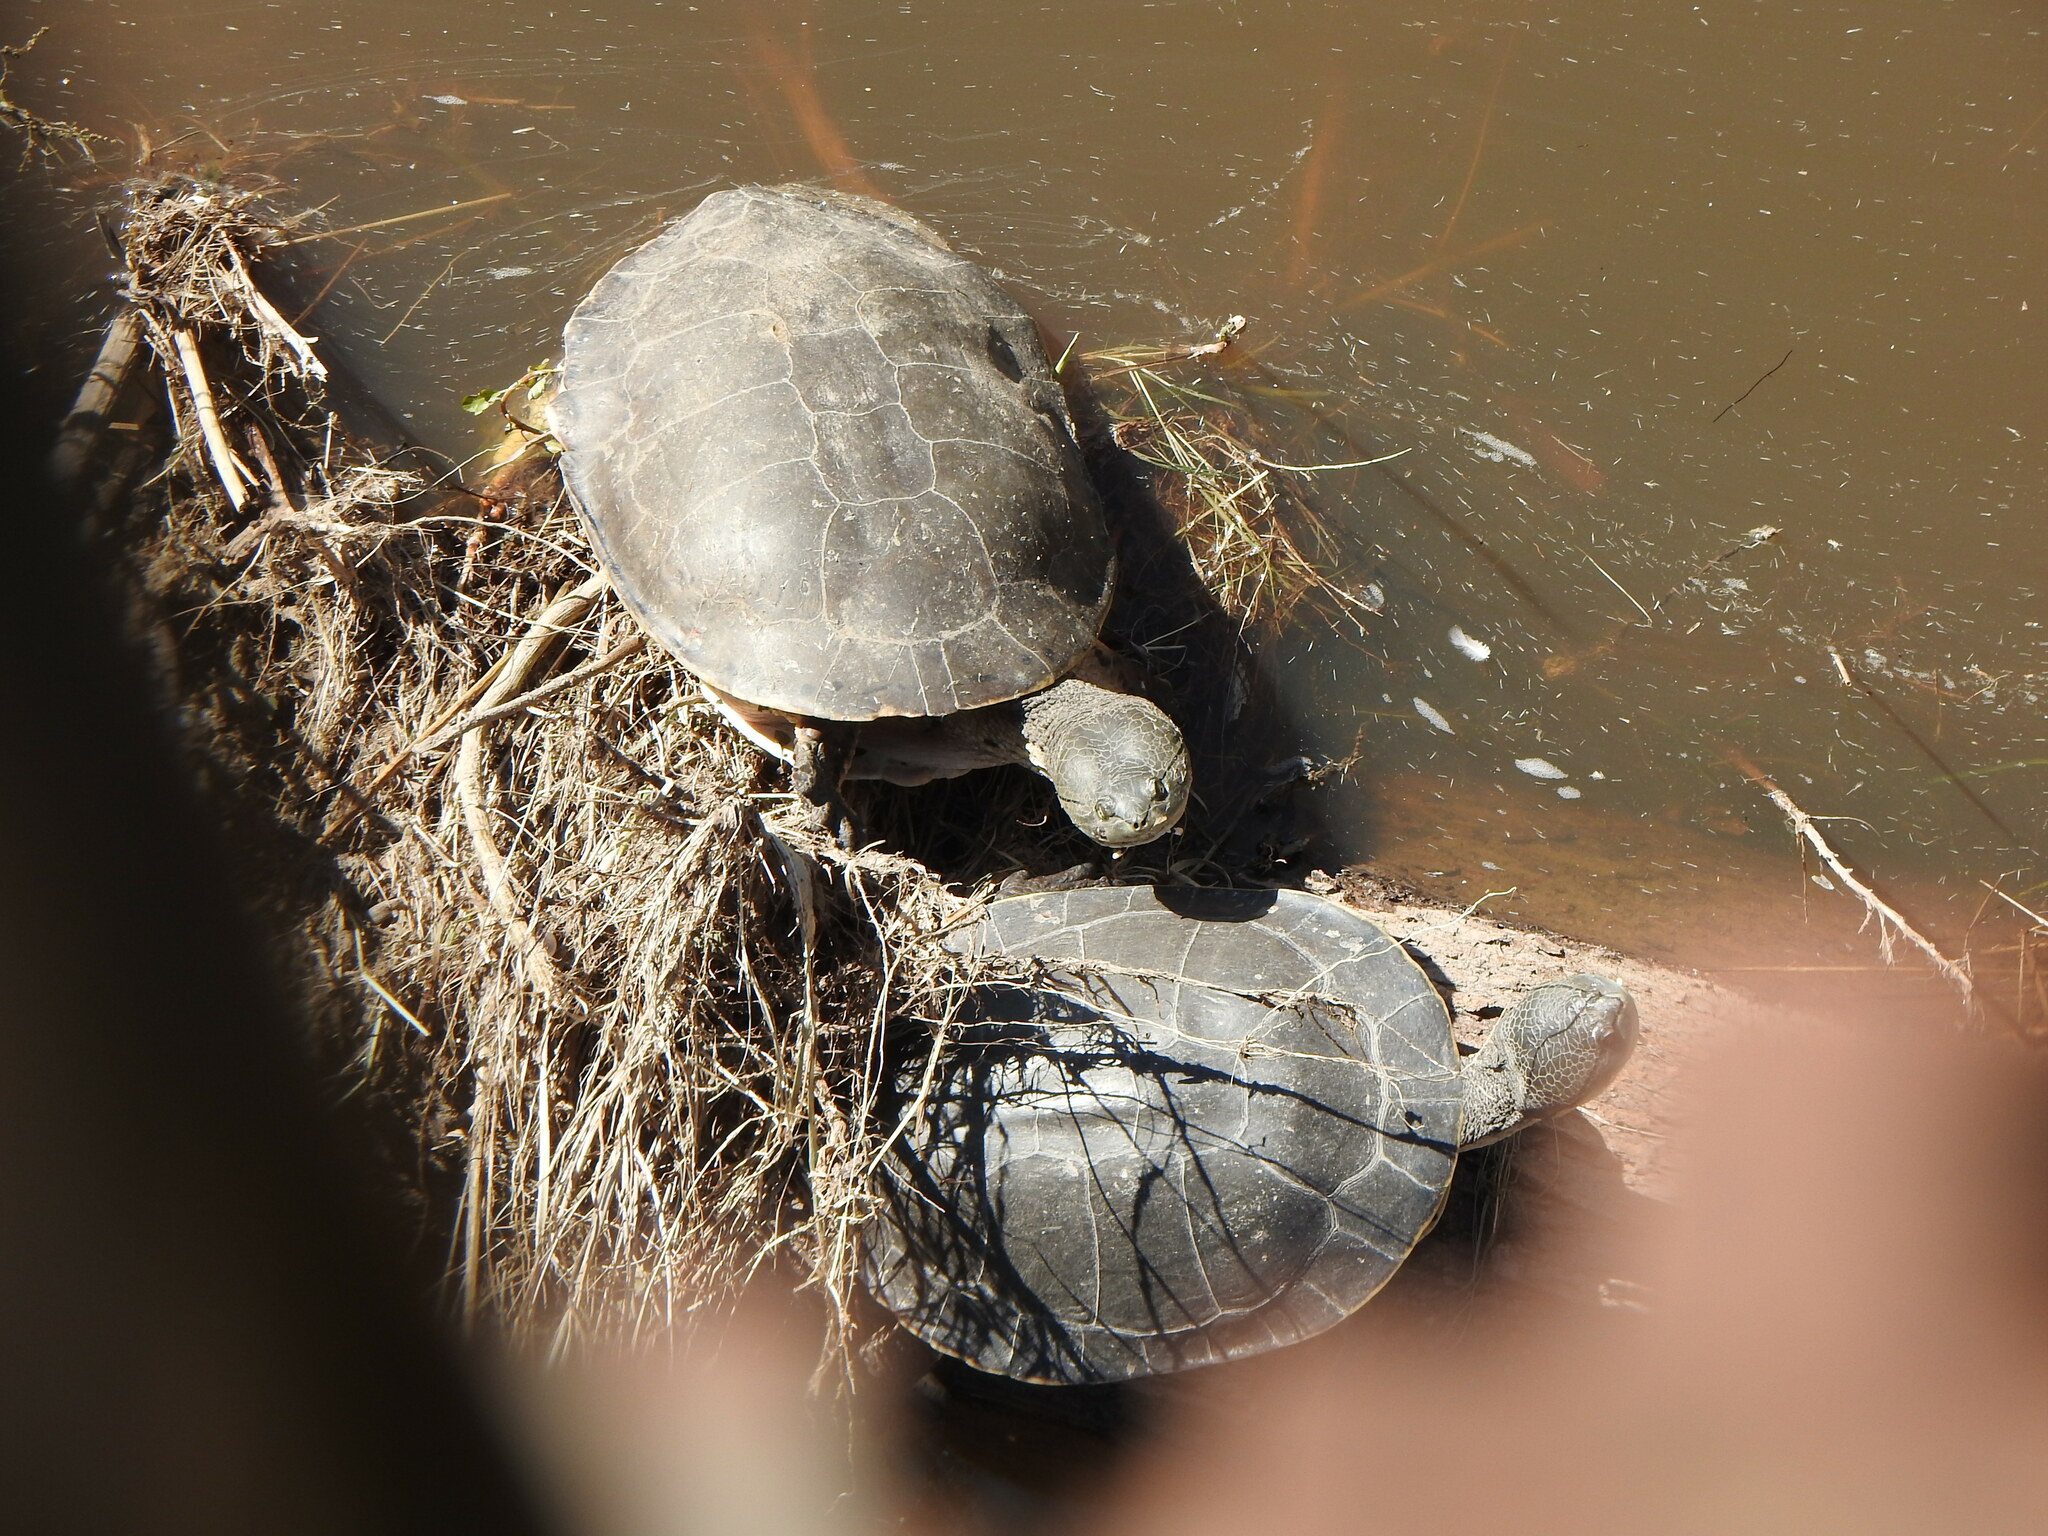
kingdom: Animalia
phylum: Chordata
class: Testudines
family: Chelidae
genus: Phrynops
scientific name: Phrynops hilarii
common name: Side-necked turtle of saint hillaire
